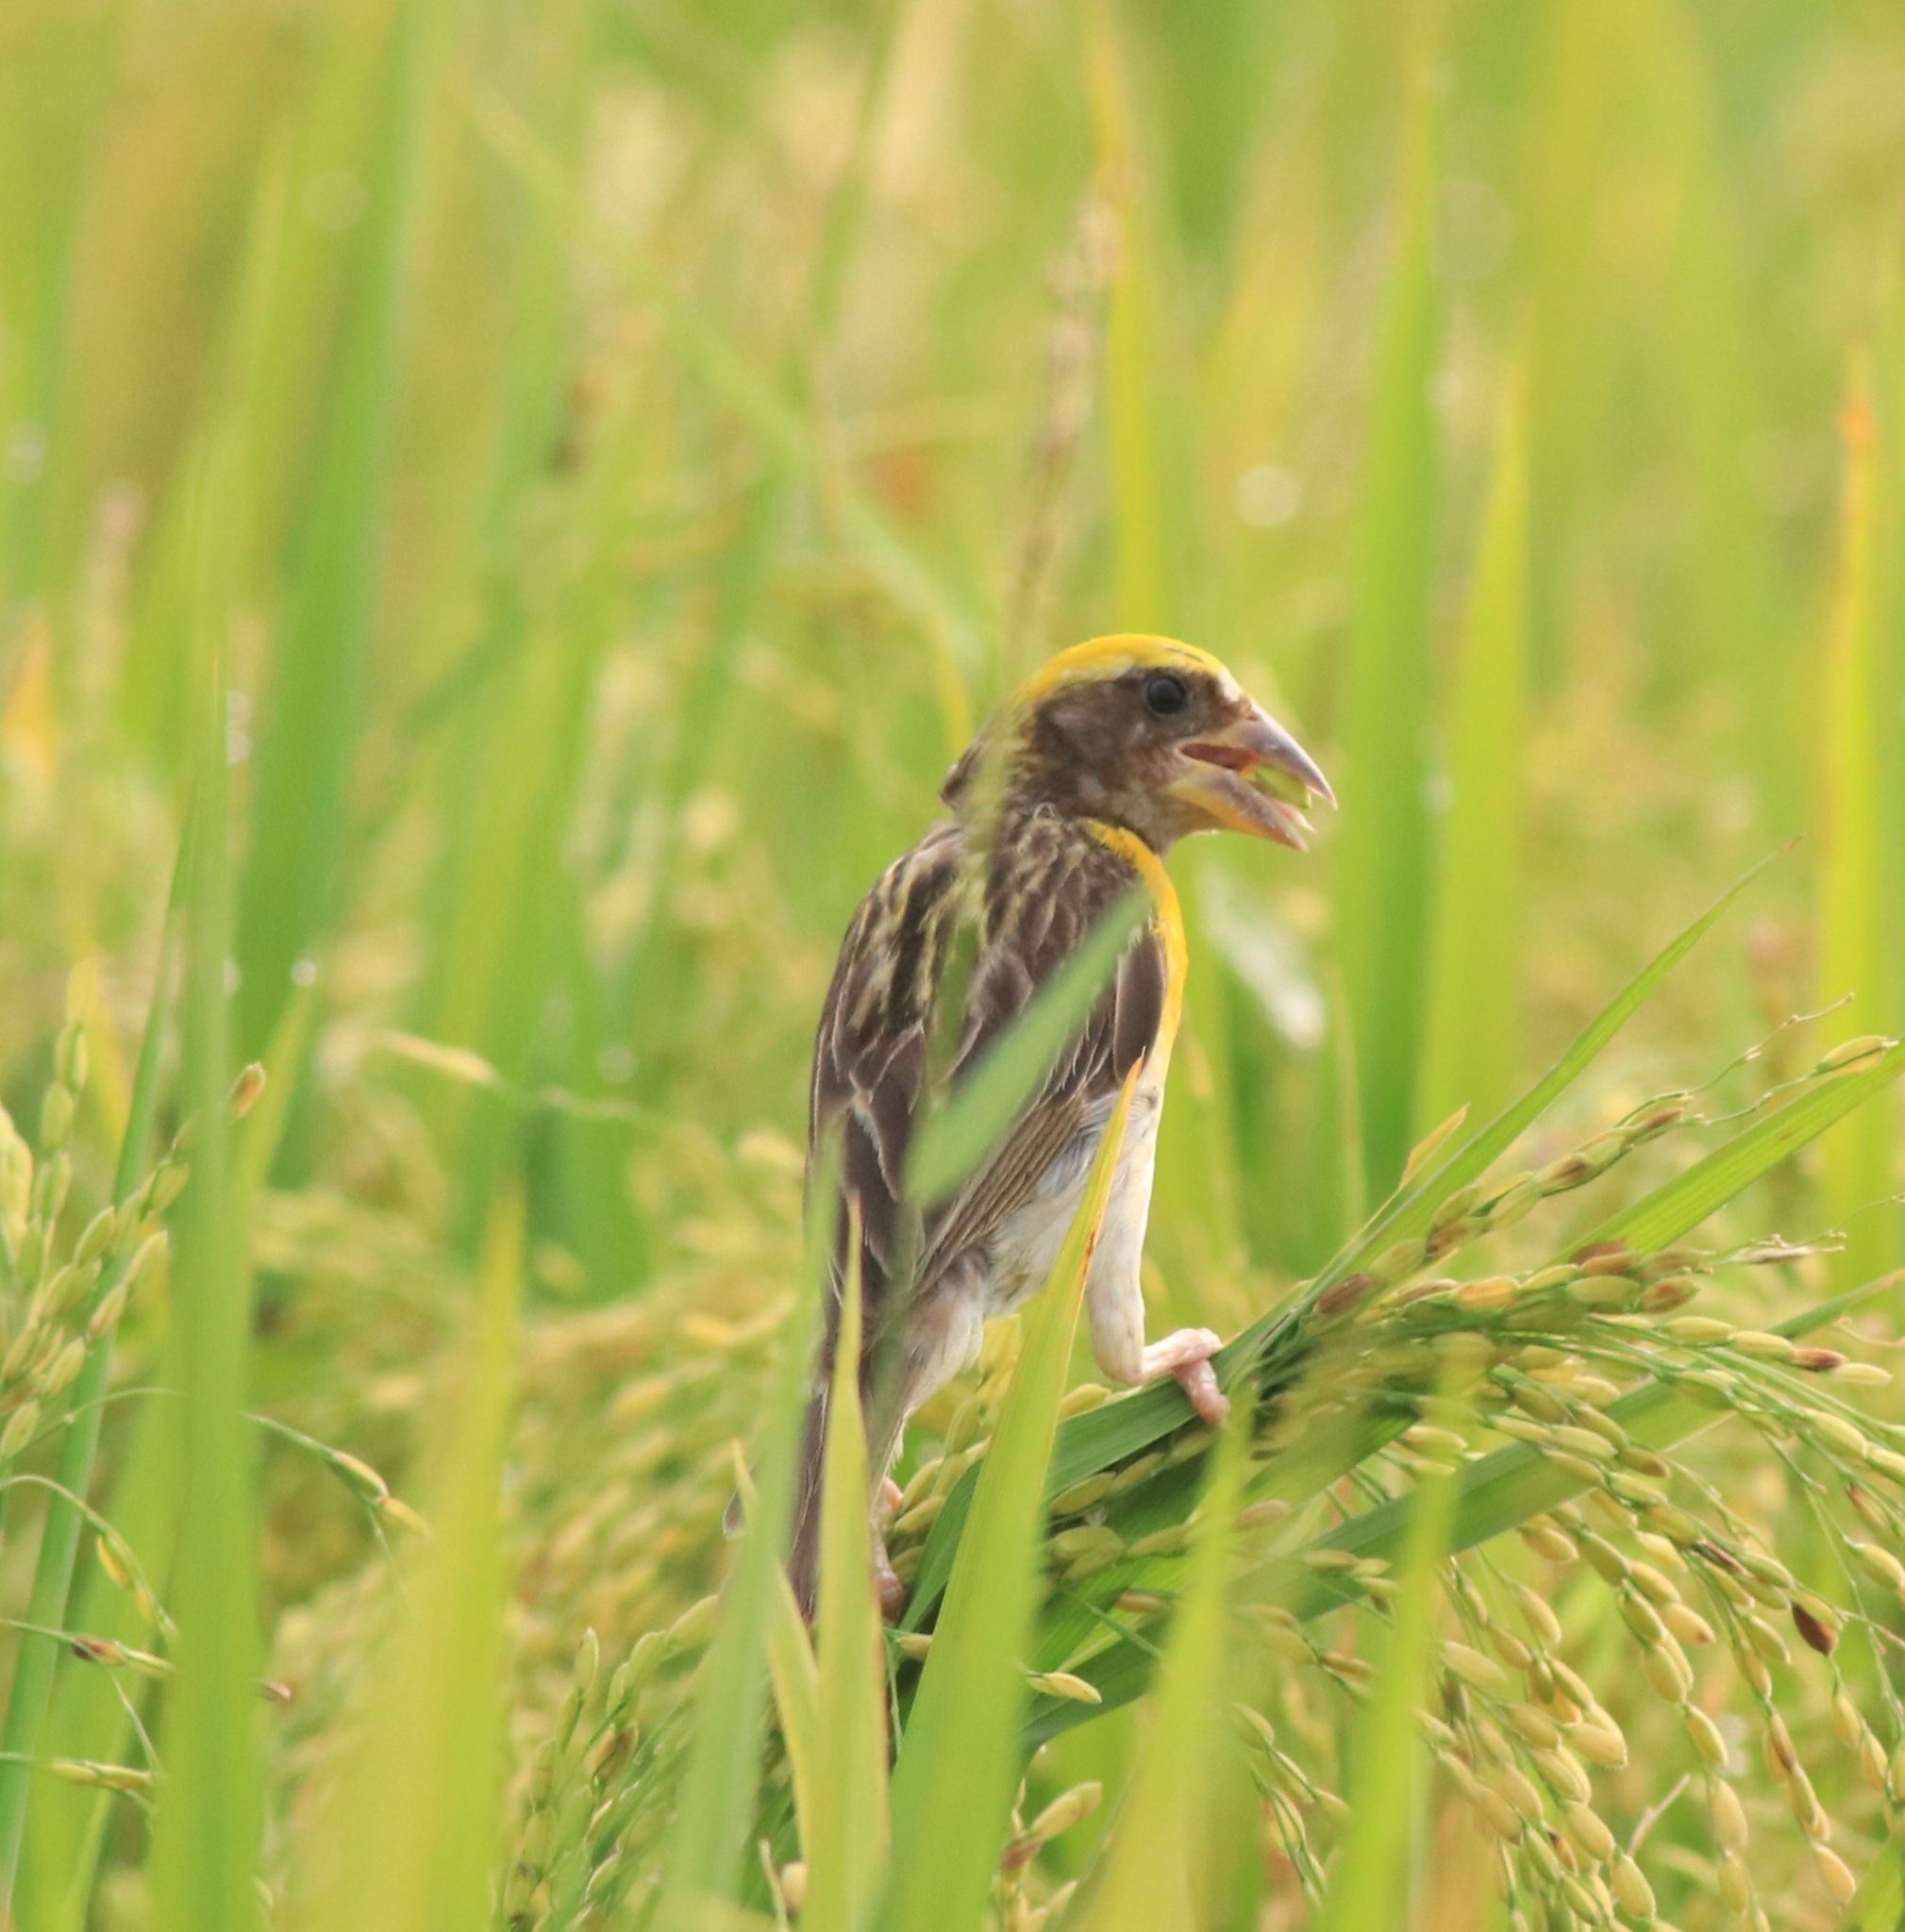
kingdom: Animalia
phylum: Chordata
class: Aves
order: Passeriformes
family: Ploceidae
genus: Ploceus
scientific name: Ploceus philippinus
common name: Baya weaver
